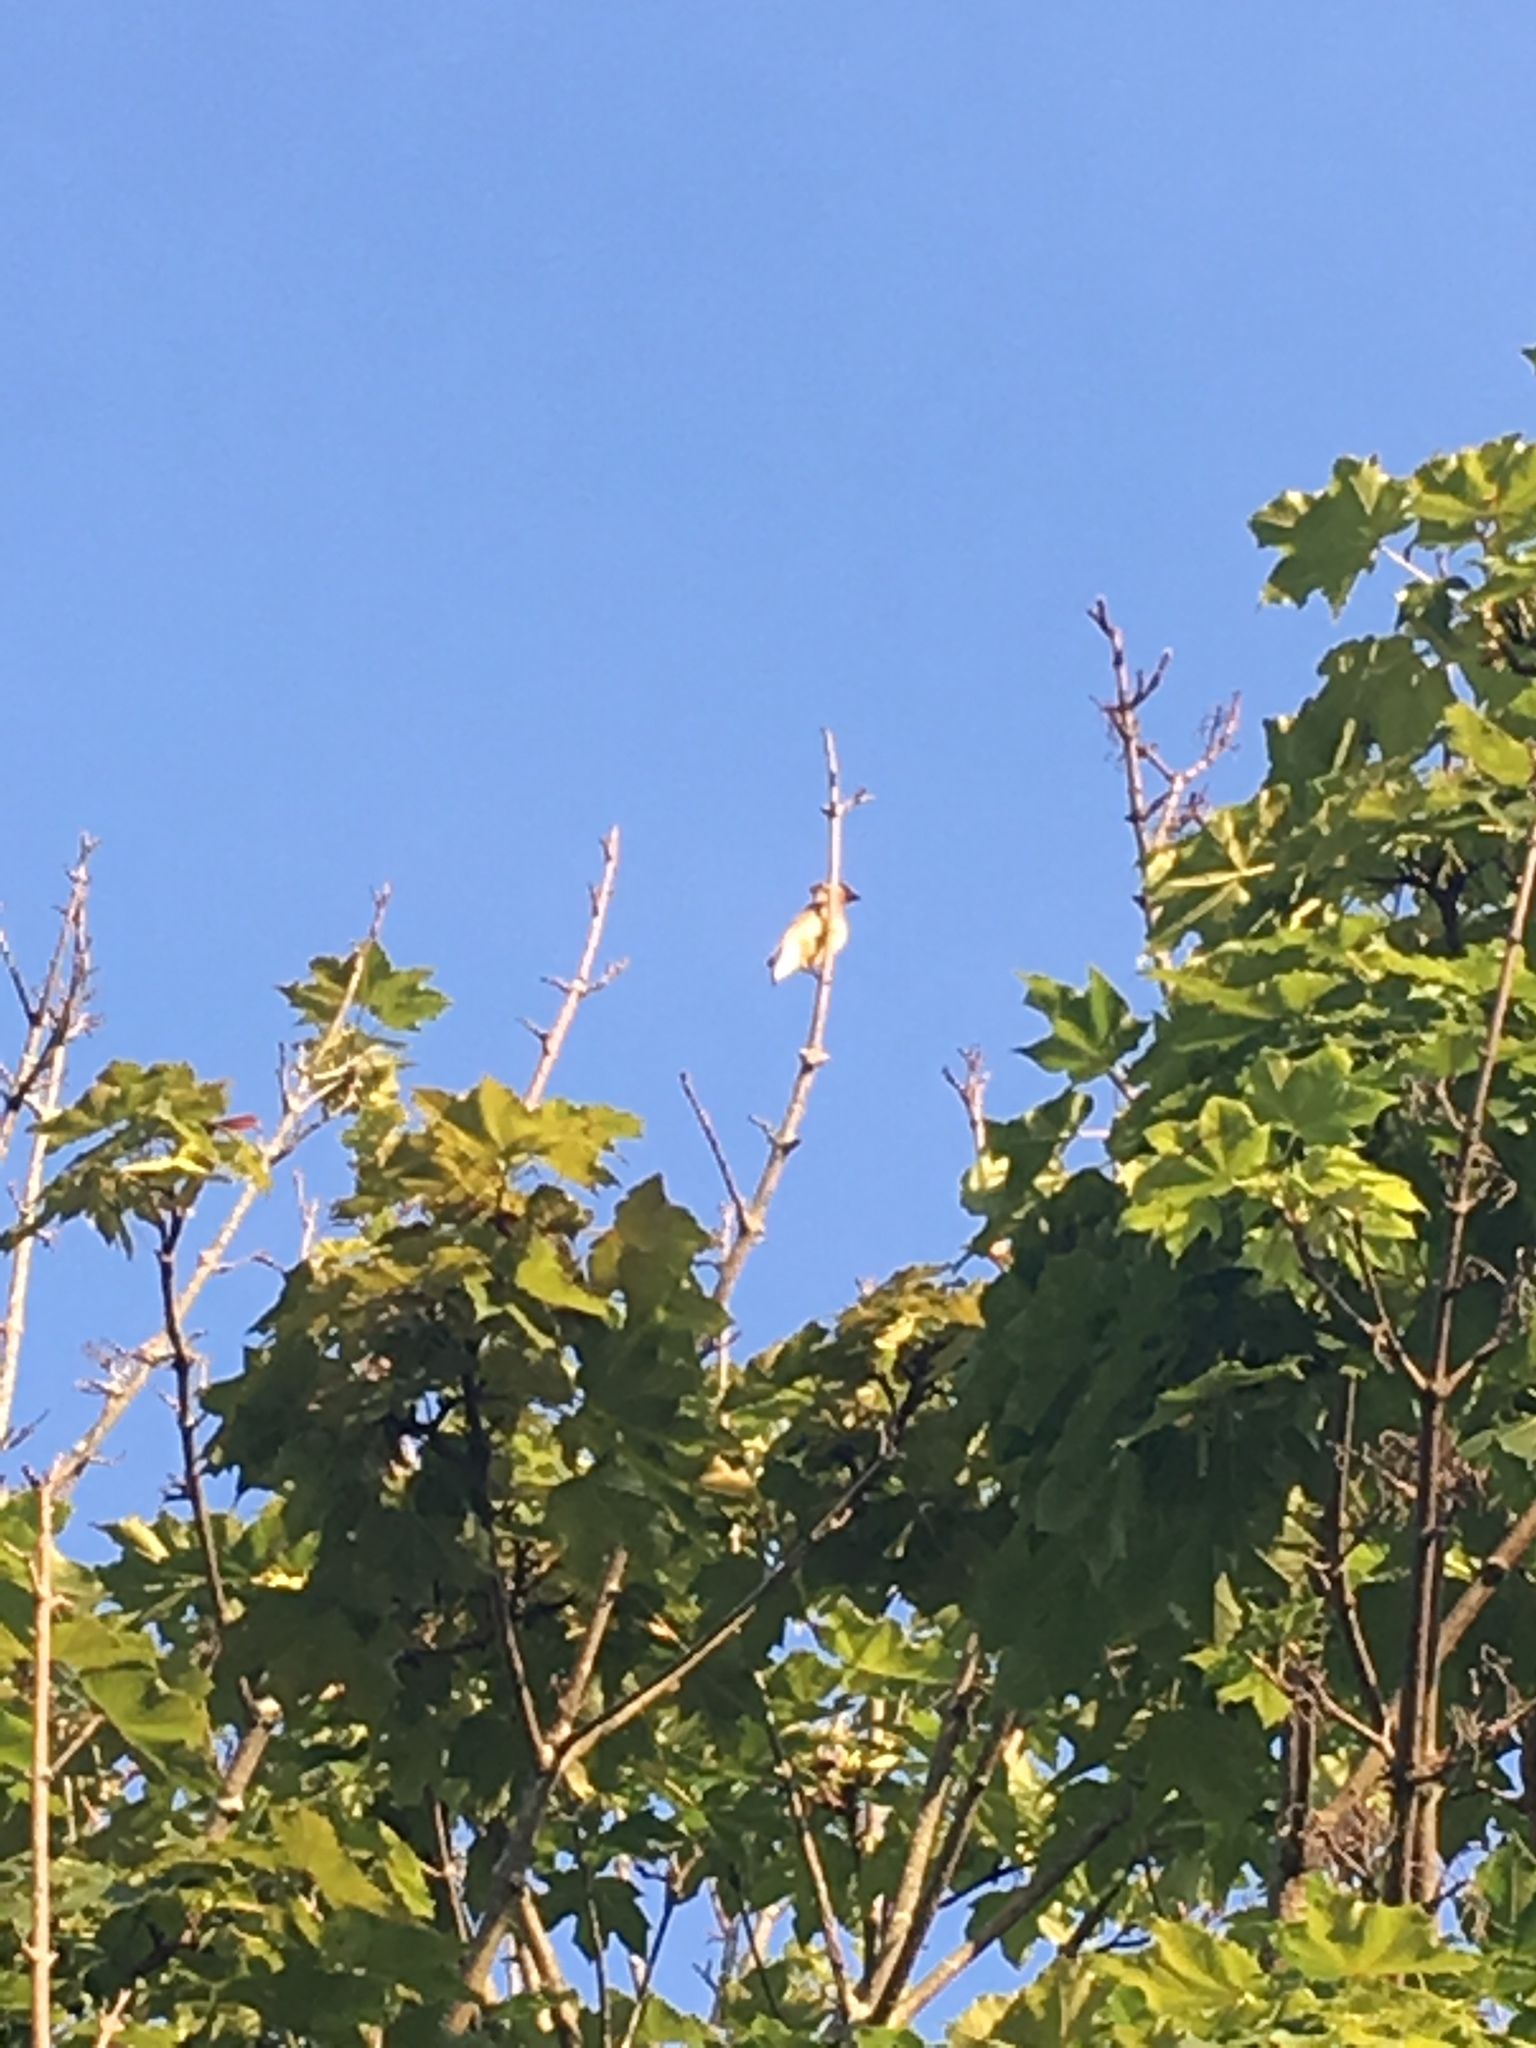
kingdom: Animalia
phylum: Chordata
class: Aves
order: Passeriformes
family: Bombycillidae
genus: Bombycilla
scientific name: Bombycilla cedrorum
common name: Cedar waxwing
